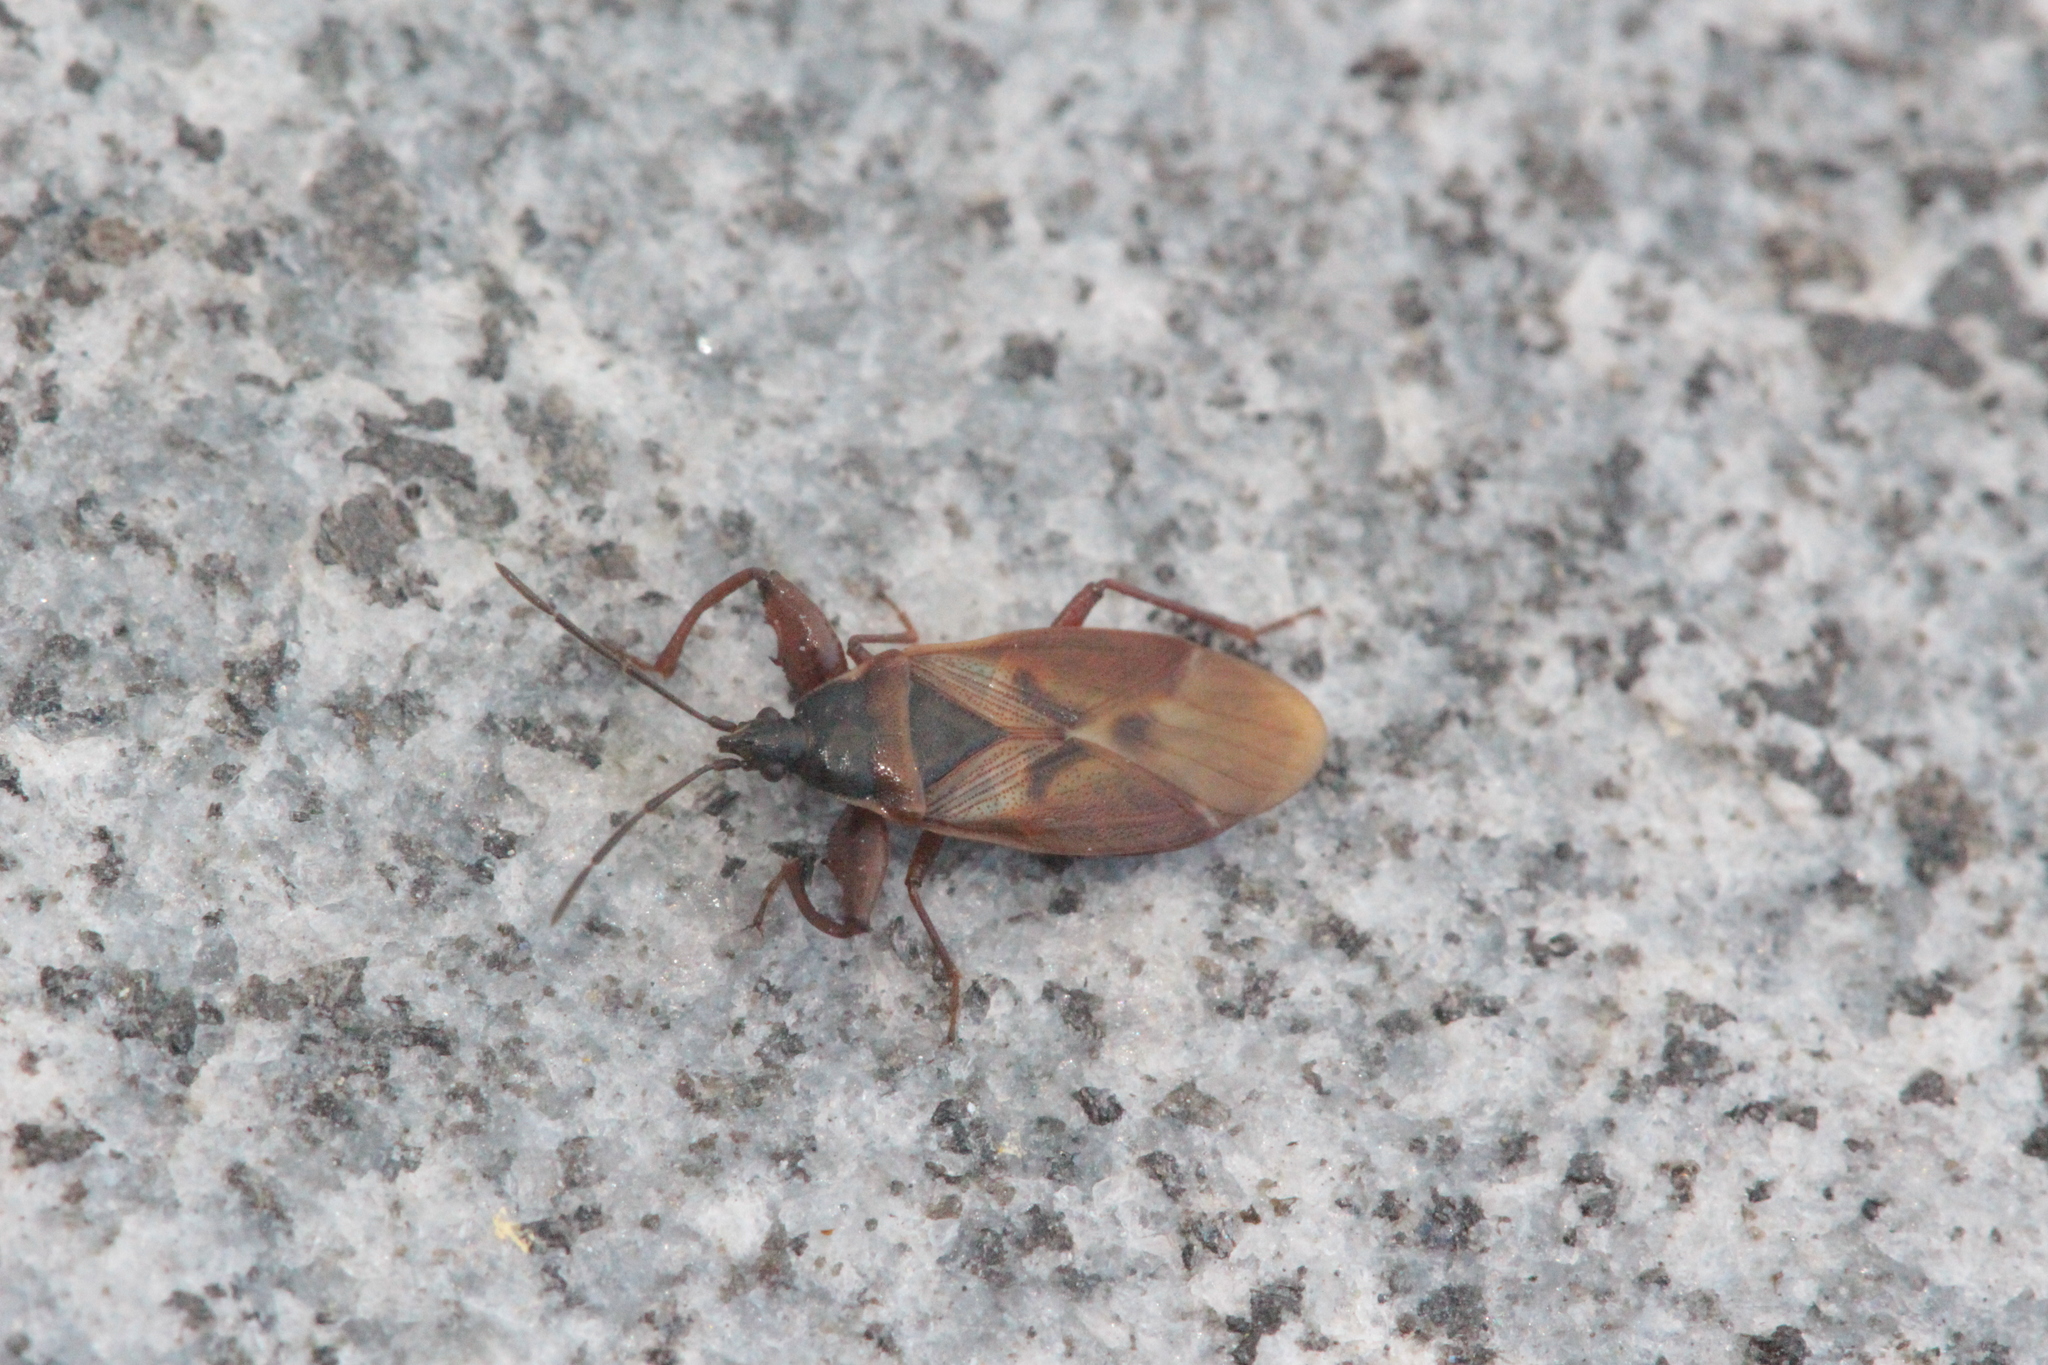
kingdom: Animalia
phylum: Arthropoda
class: Insecta
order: Hemiptera
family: Rhyparochromidae
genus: Gastrodes
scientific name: Gastrodes abietum
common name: Spruce cone bug
